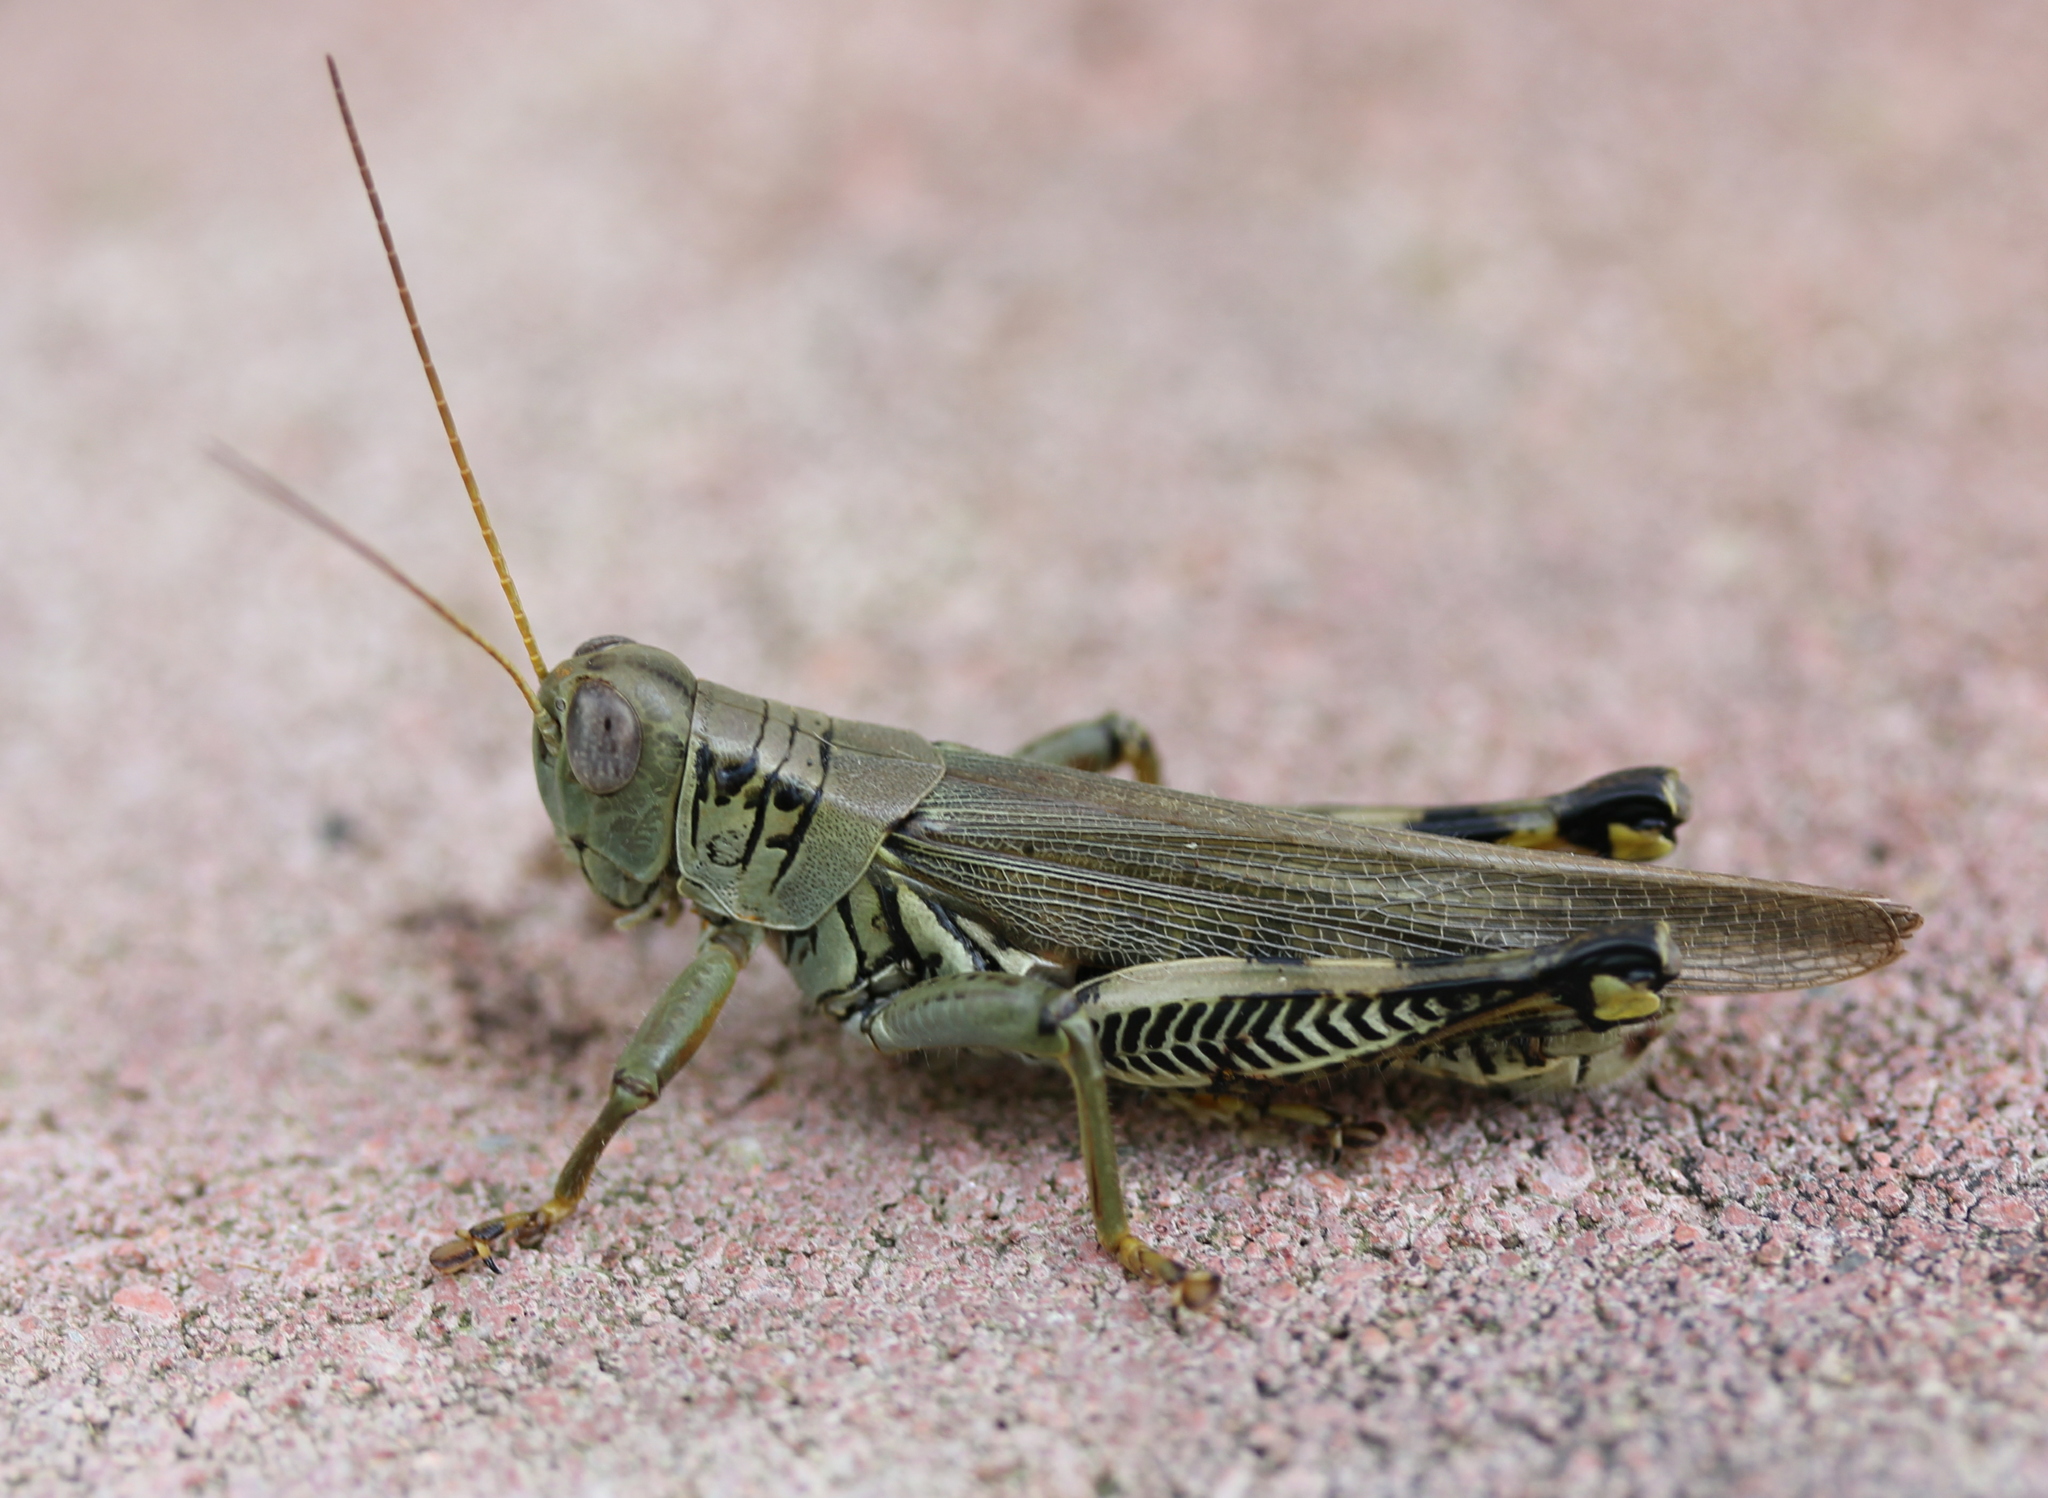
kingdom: Animalia
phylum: Arthropoda
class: Insecta
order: Orthoptera
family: Acrididae
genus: Melanoplus
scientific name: Melanoplus differentialis
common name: Differential grasshopper
